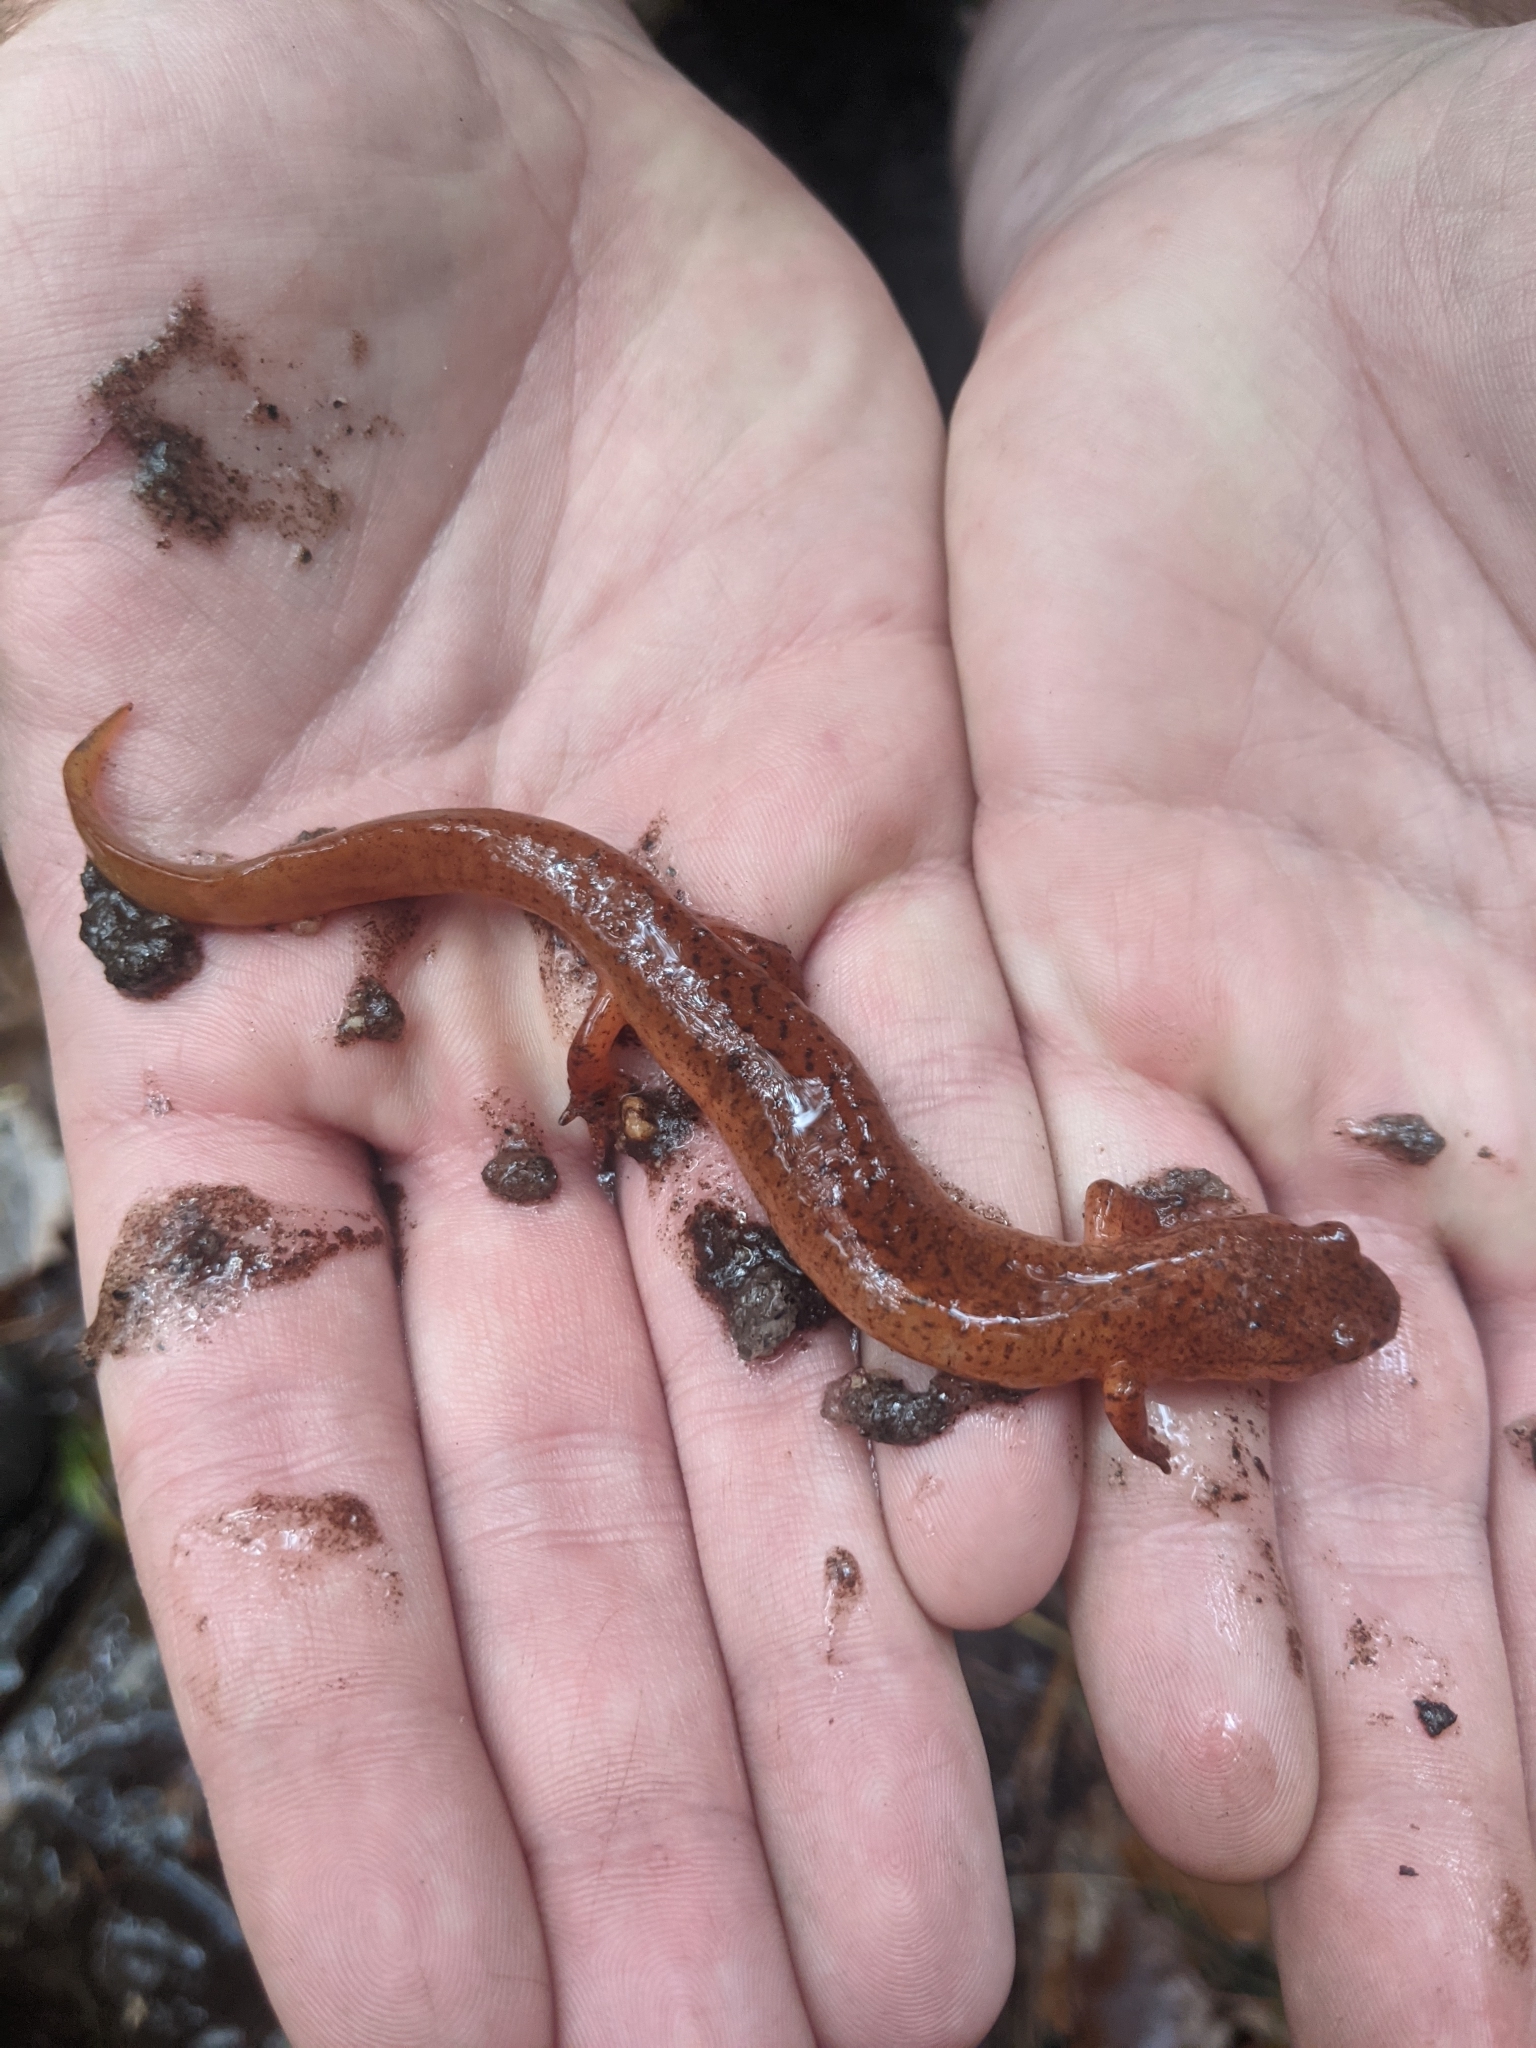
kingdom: Animalia
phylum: Chordata
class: Amphibia
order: Caudata
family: Plethodontidae
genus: Gyrinophilus
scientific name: Gyrinophilus porphyriticus
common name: Spring salamander
